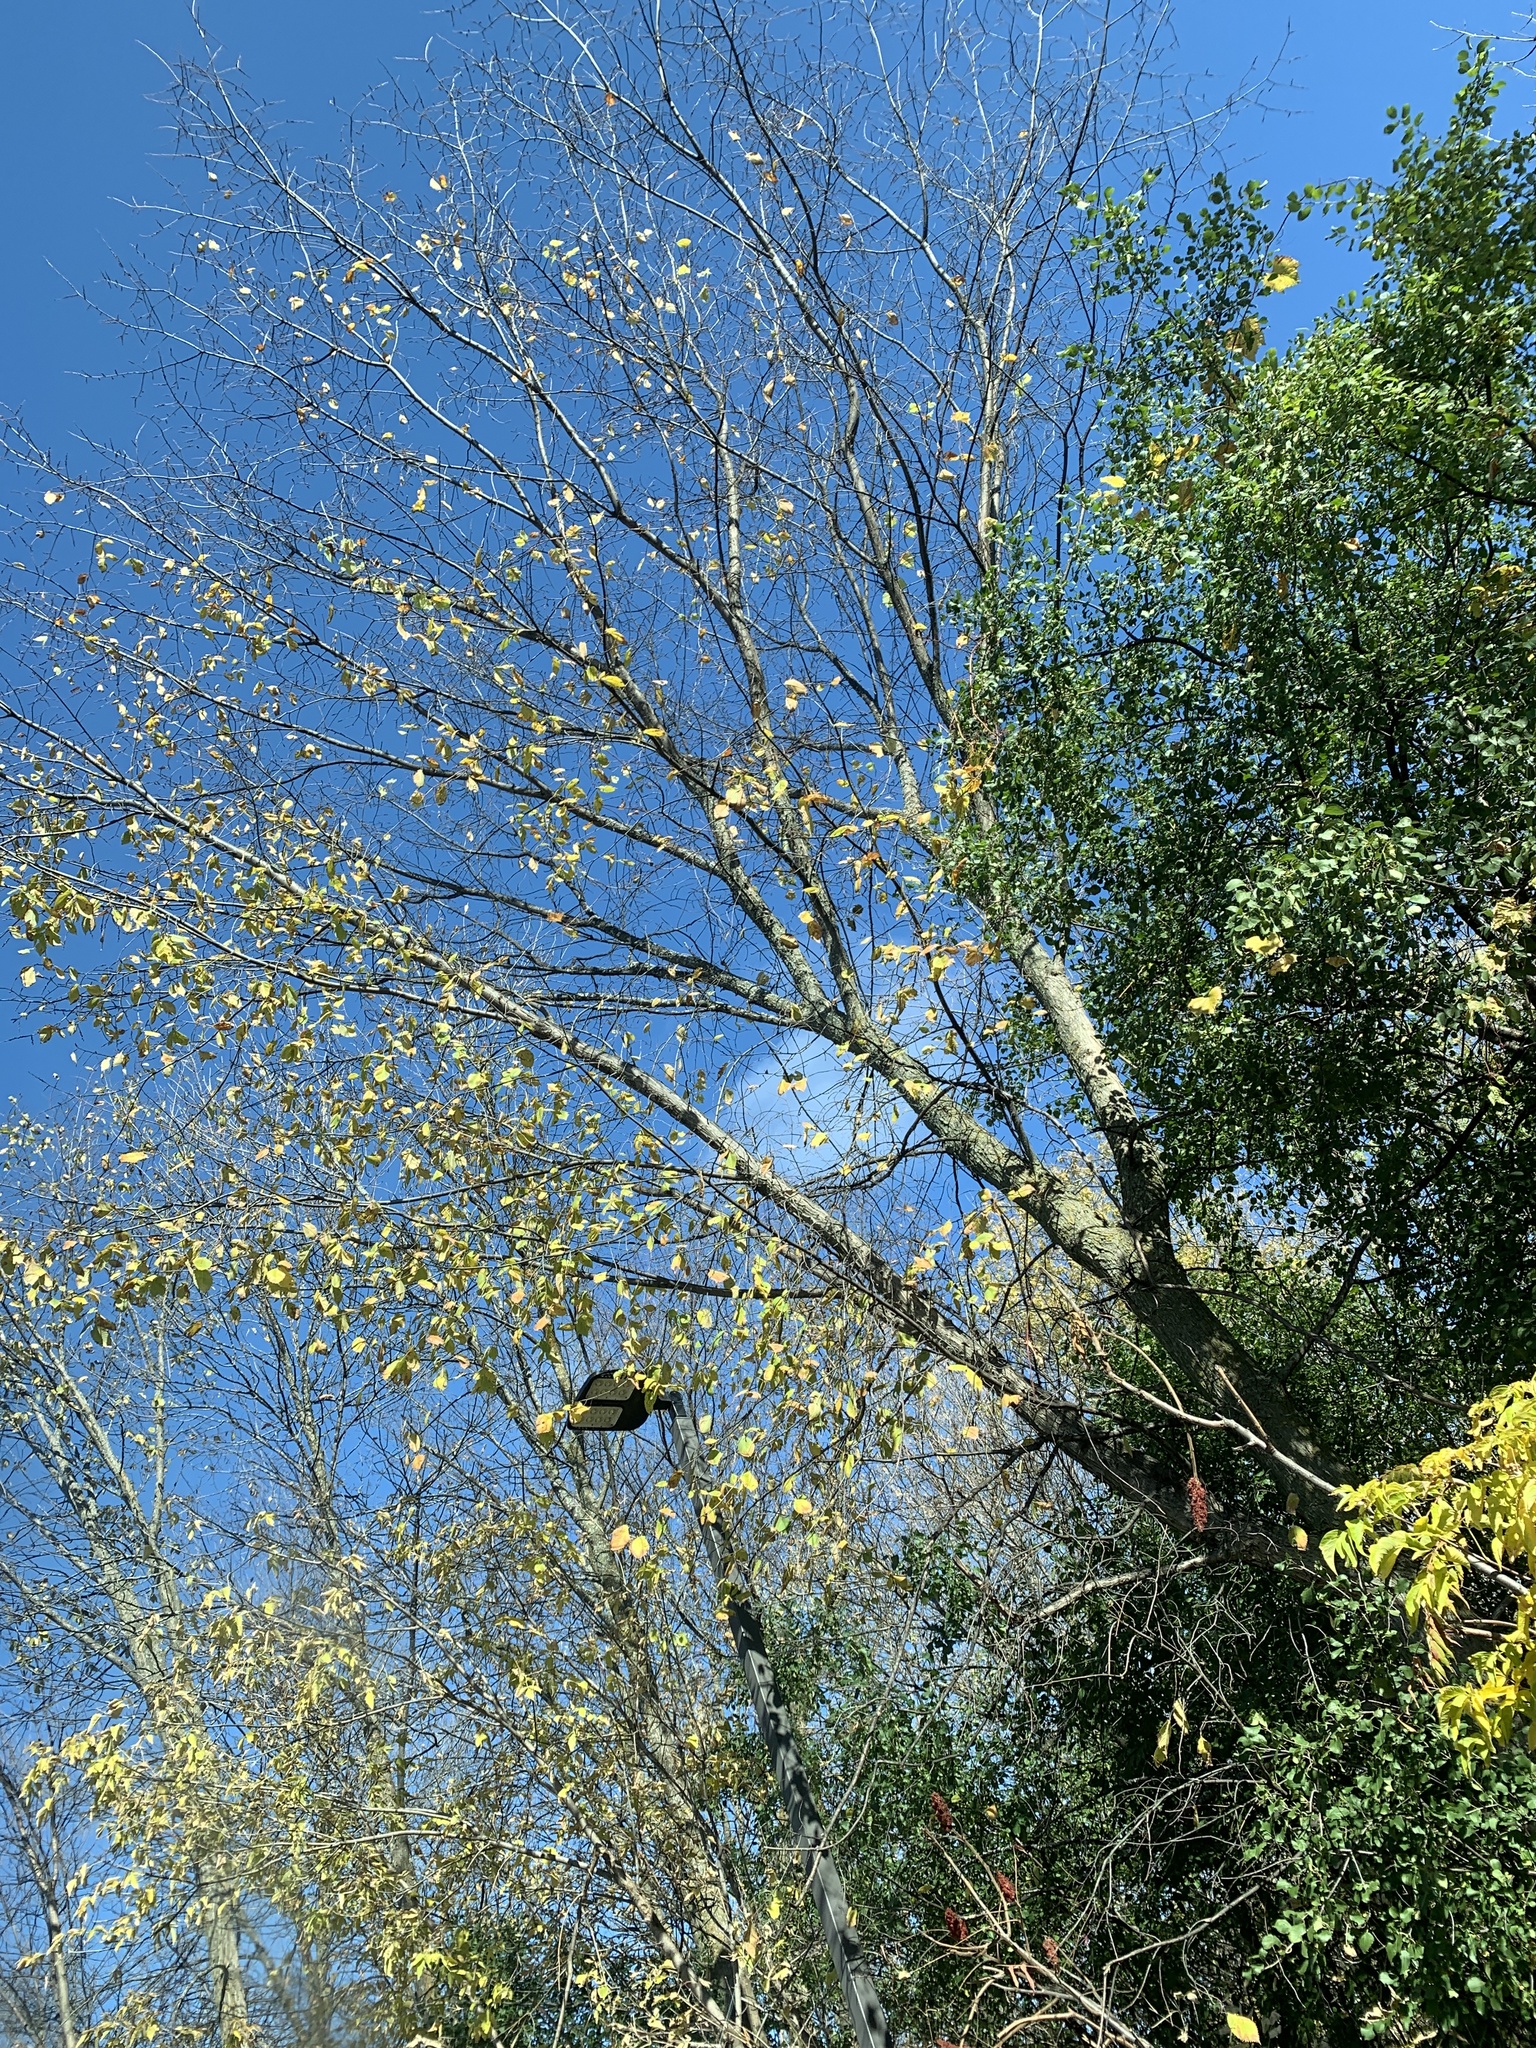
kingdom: Plantae
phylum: Tracheophyta
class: Magnoliopsida
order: Rosales
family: Ulmaceae
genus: Ulmus
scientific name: Ulmus americana
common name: American elm
